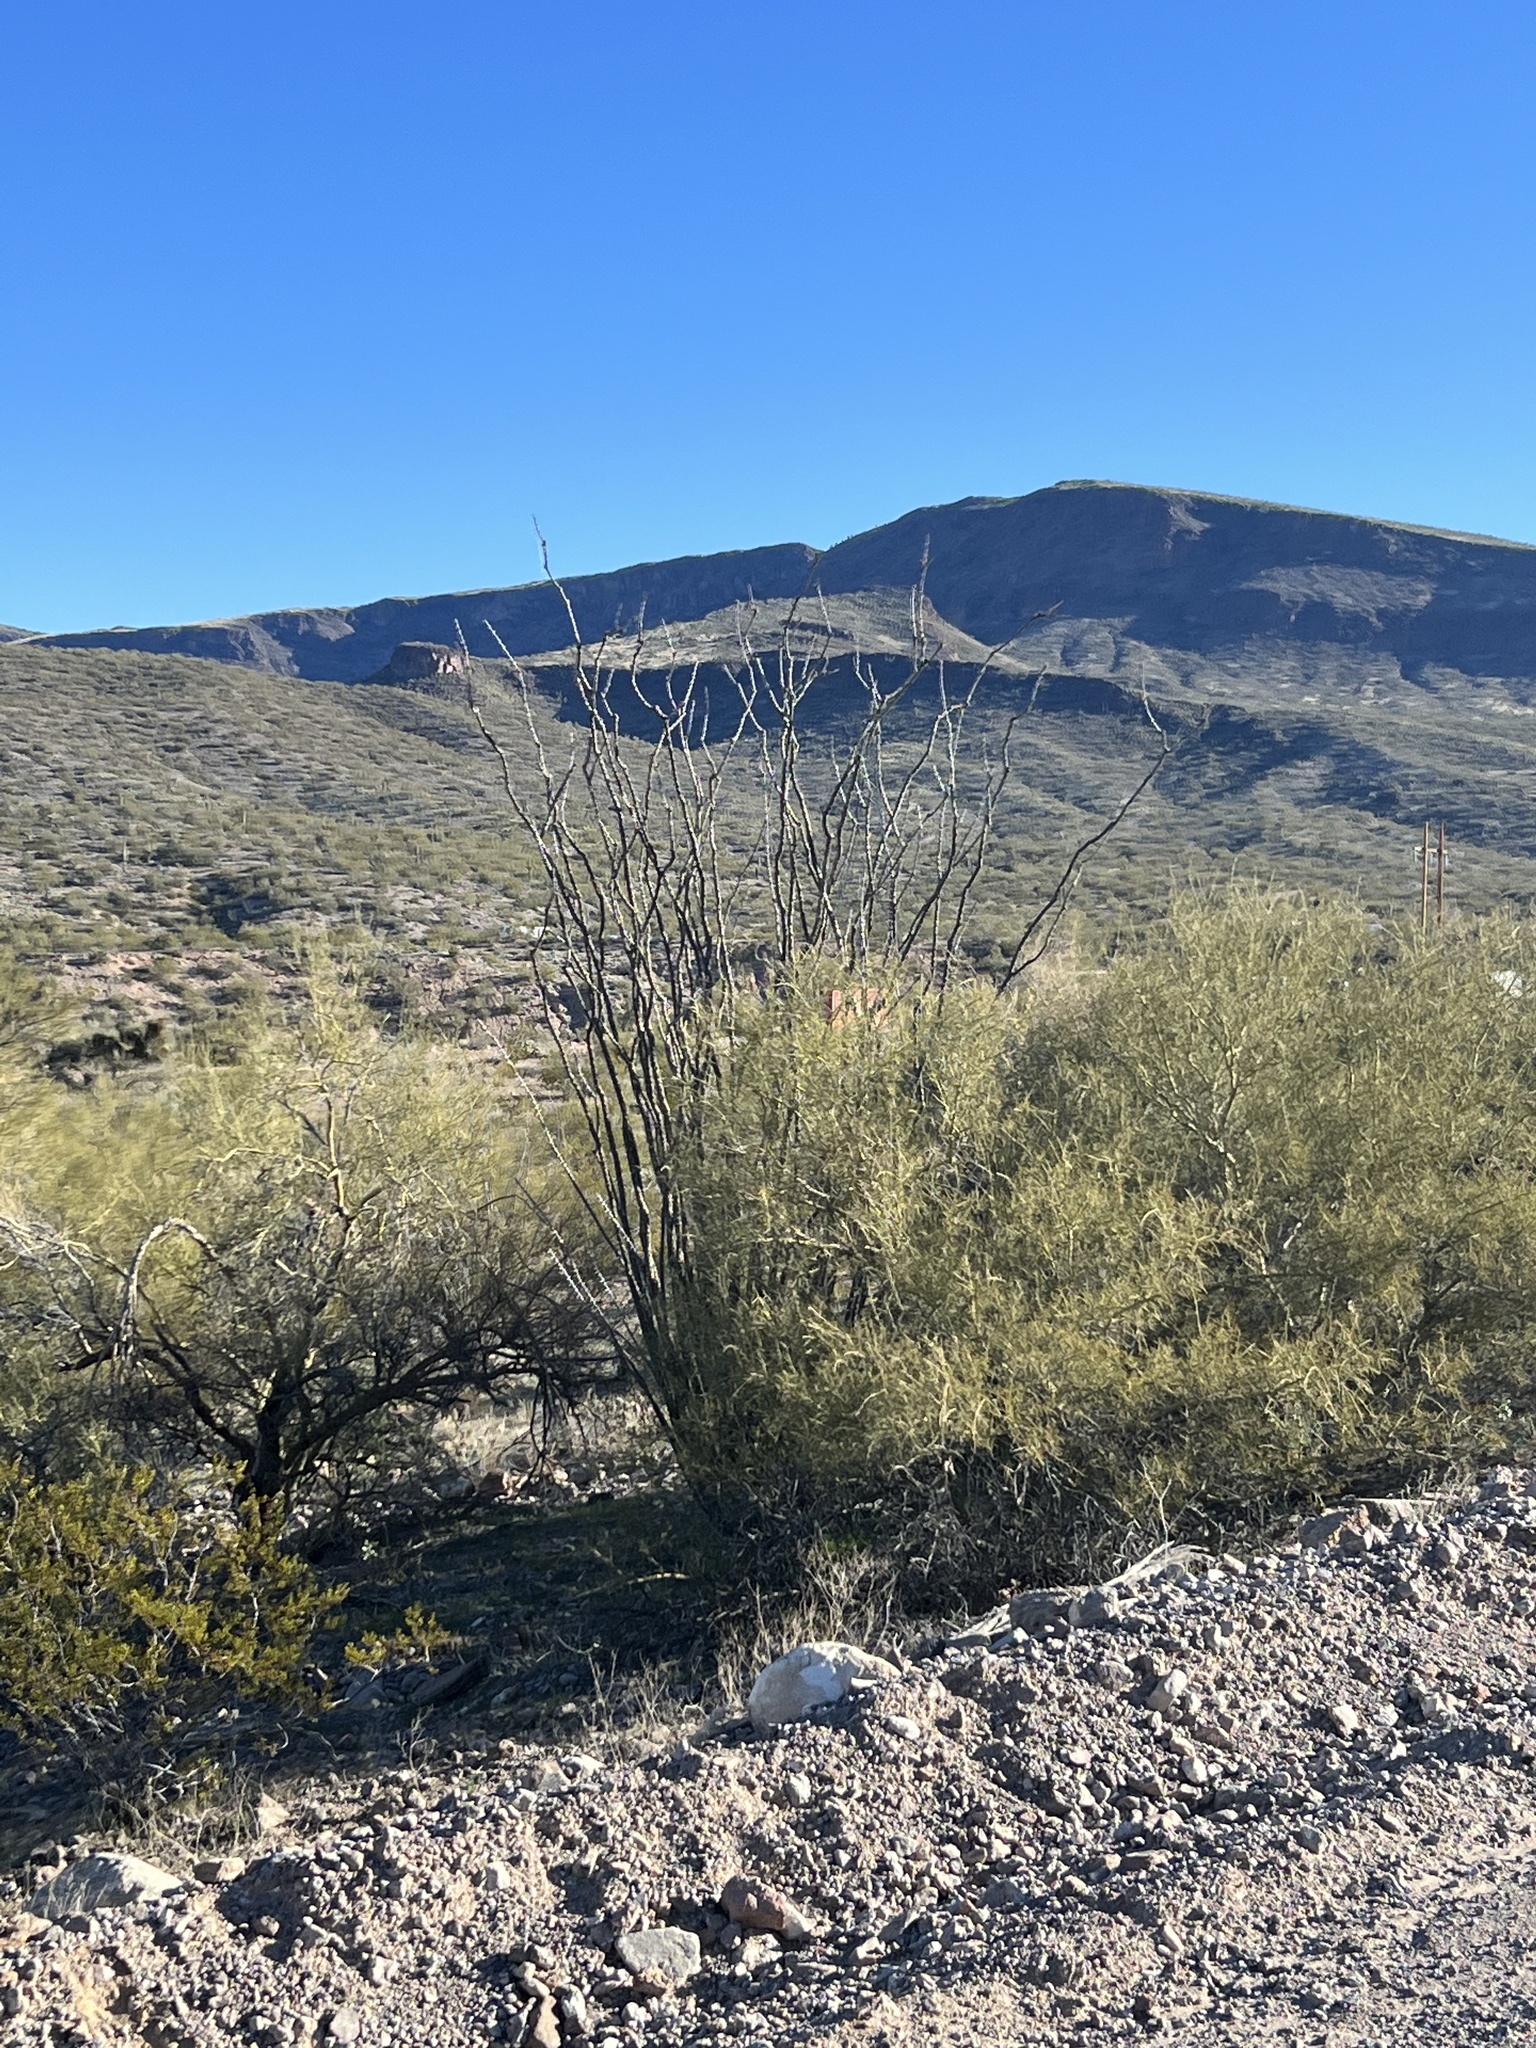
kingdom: Plantae
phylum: Tracheophyta
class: Magnoliopsida
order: Zygophyllales
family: Zygophyllaceae
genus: Larrea
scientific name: Larrea tridentata
